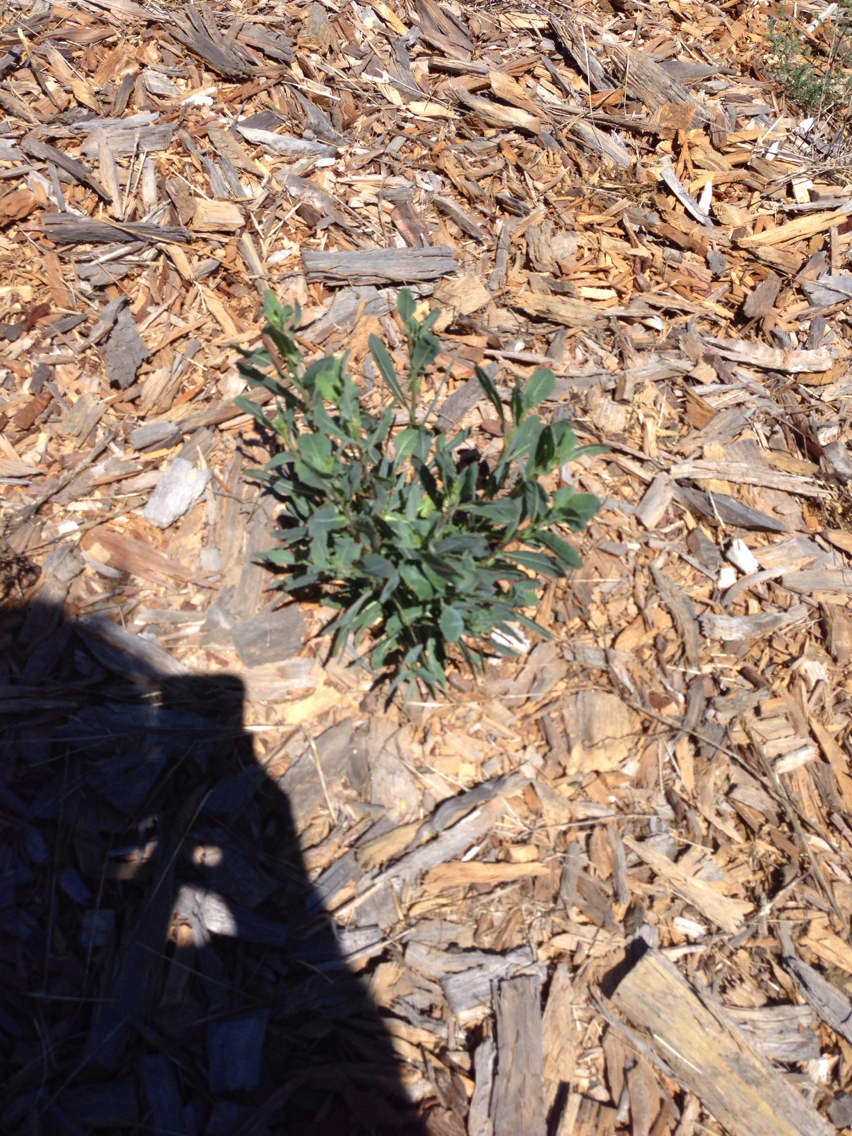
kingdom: Plantae
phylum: Tracheophyta
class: Magnoliopsida
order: Asterales
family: Asteraceae
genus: Lactuca
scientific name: Lactuca serriola
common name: Prickly lettuce
